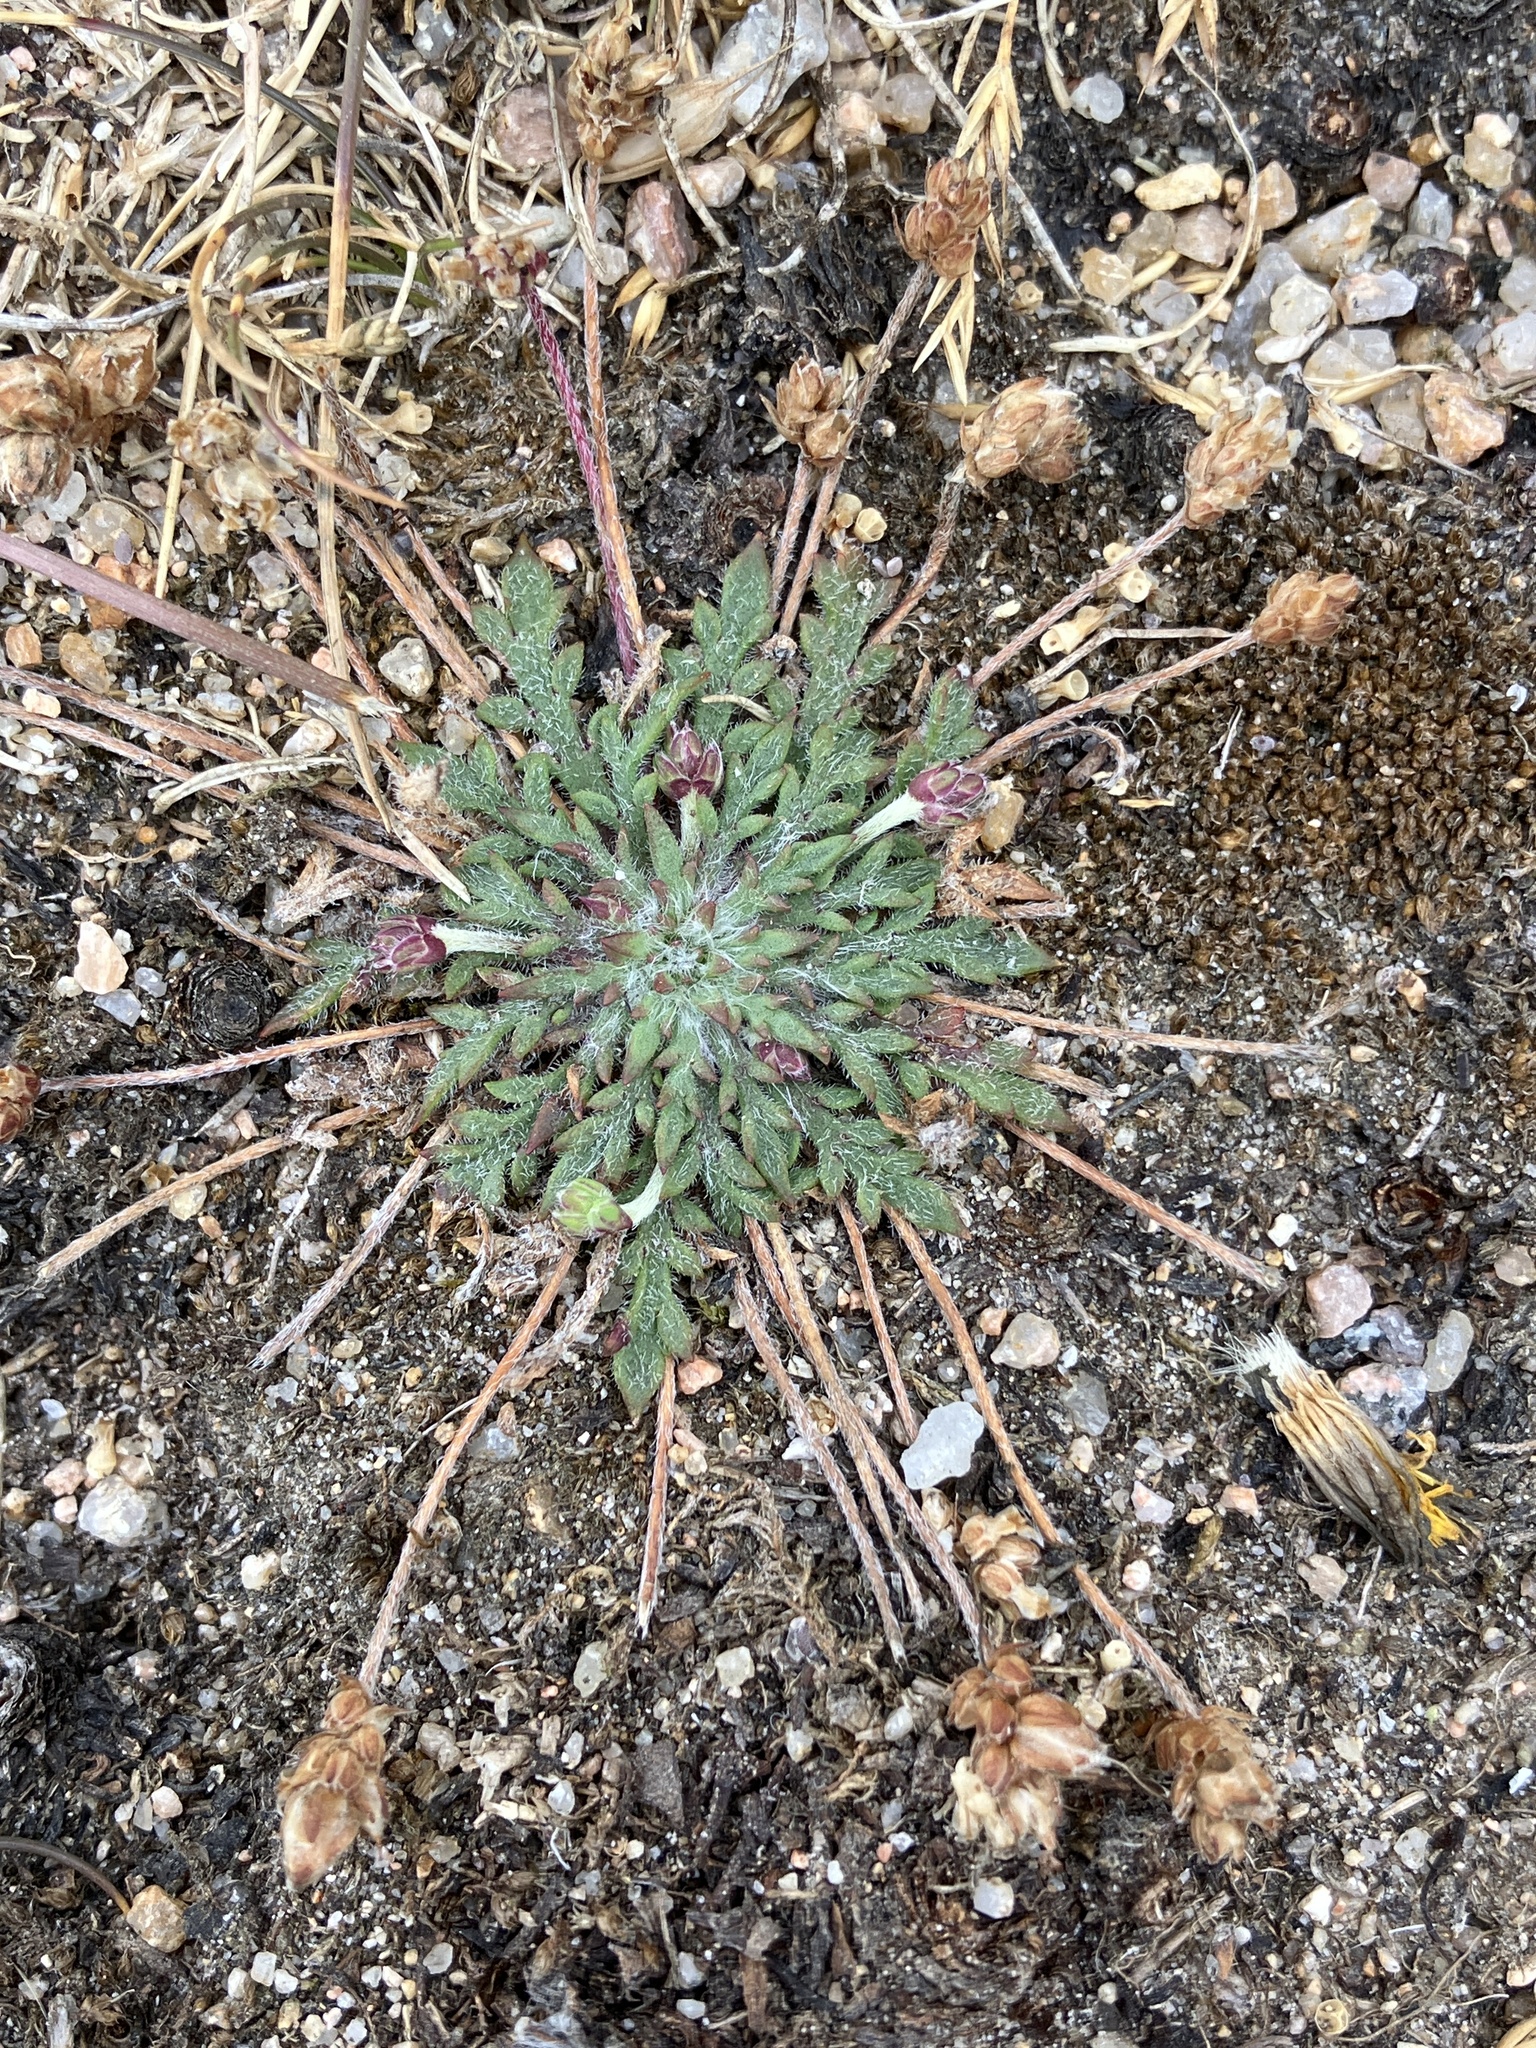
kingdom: Plantae
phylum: Tracheophyta
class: Magnoliopsida
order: Lamiales
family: Plantaginaceae
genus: Plantago
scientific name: Plantago coronopus
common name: Buck's-horn plantain
